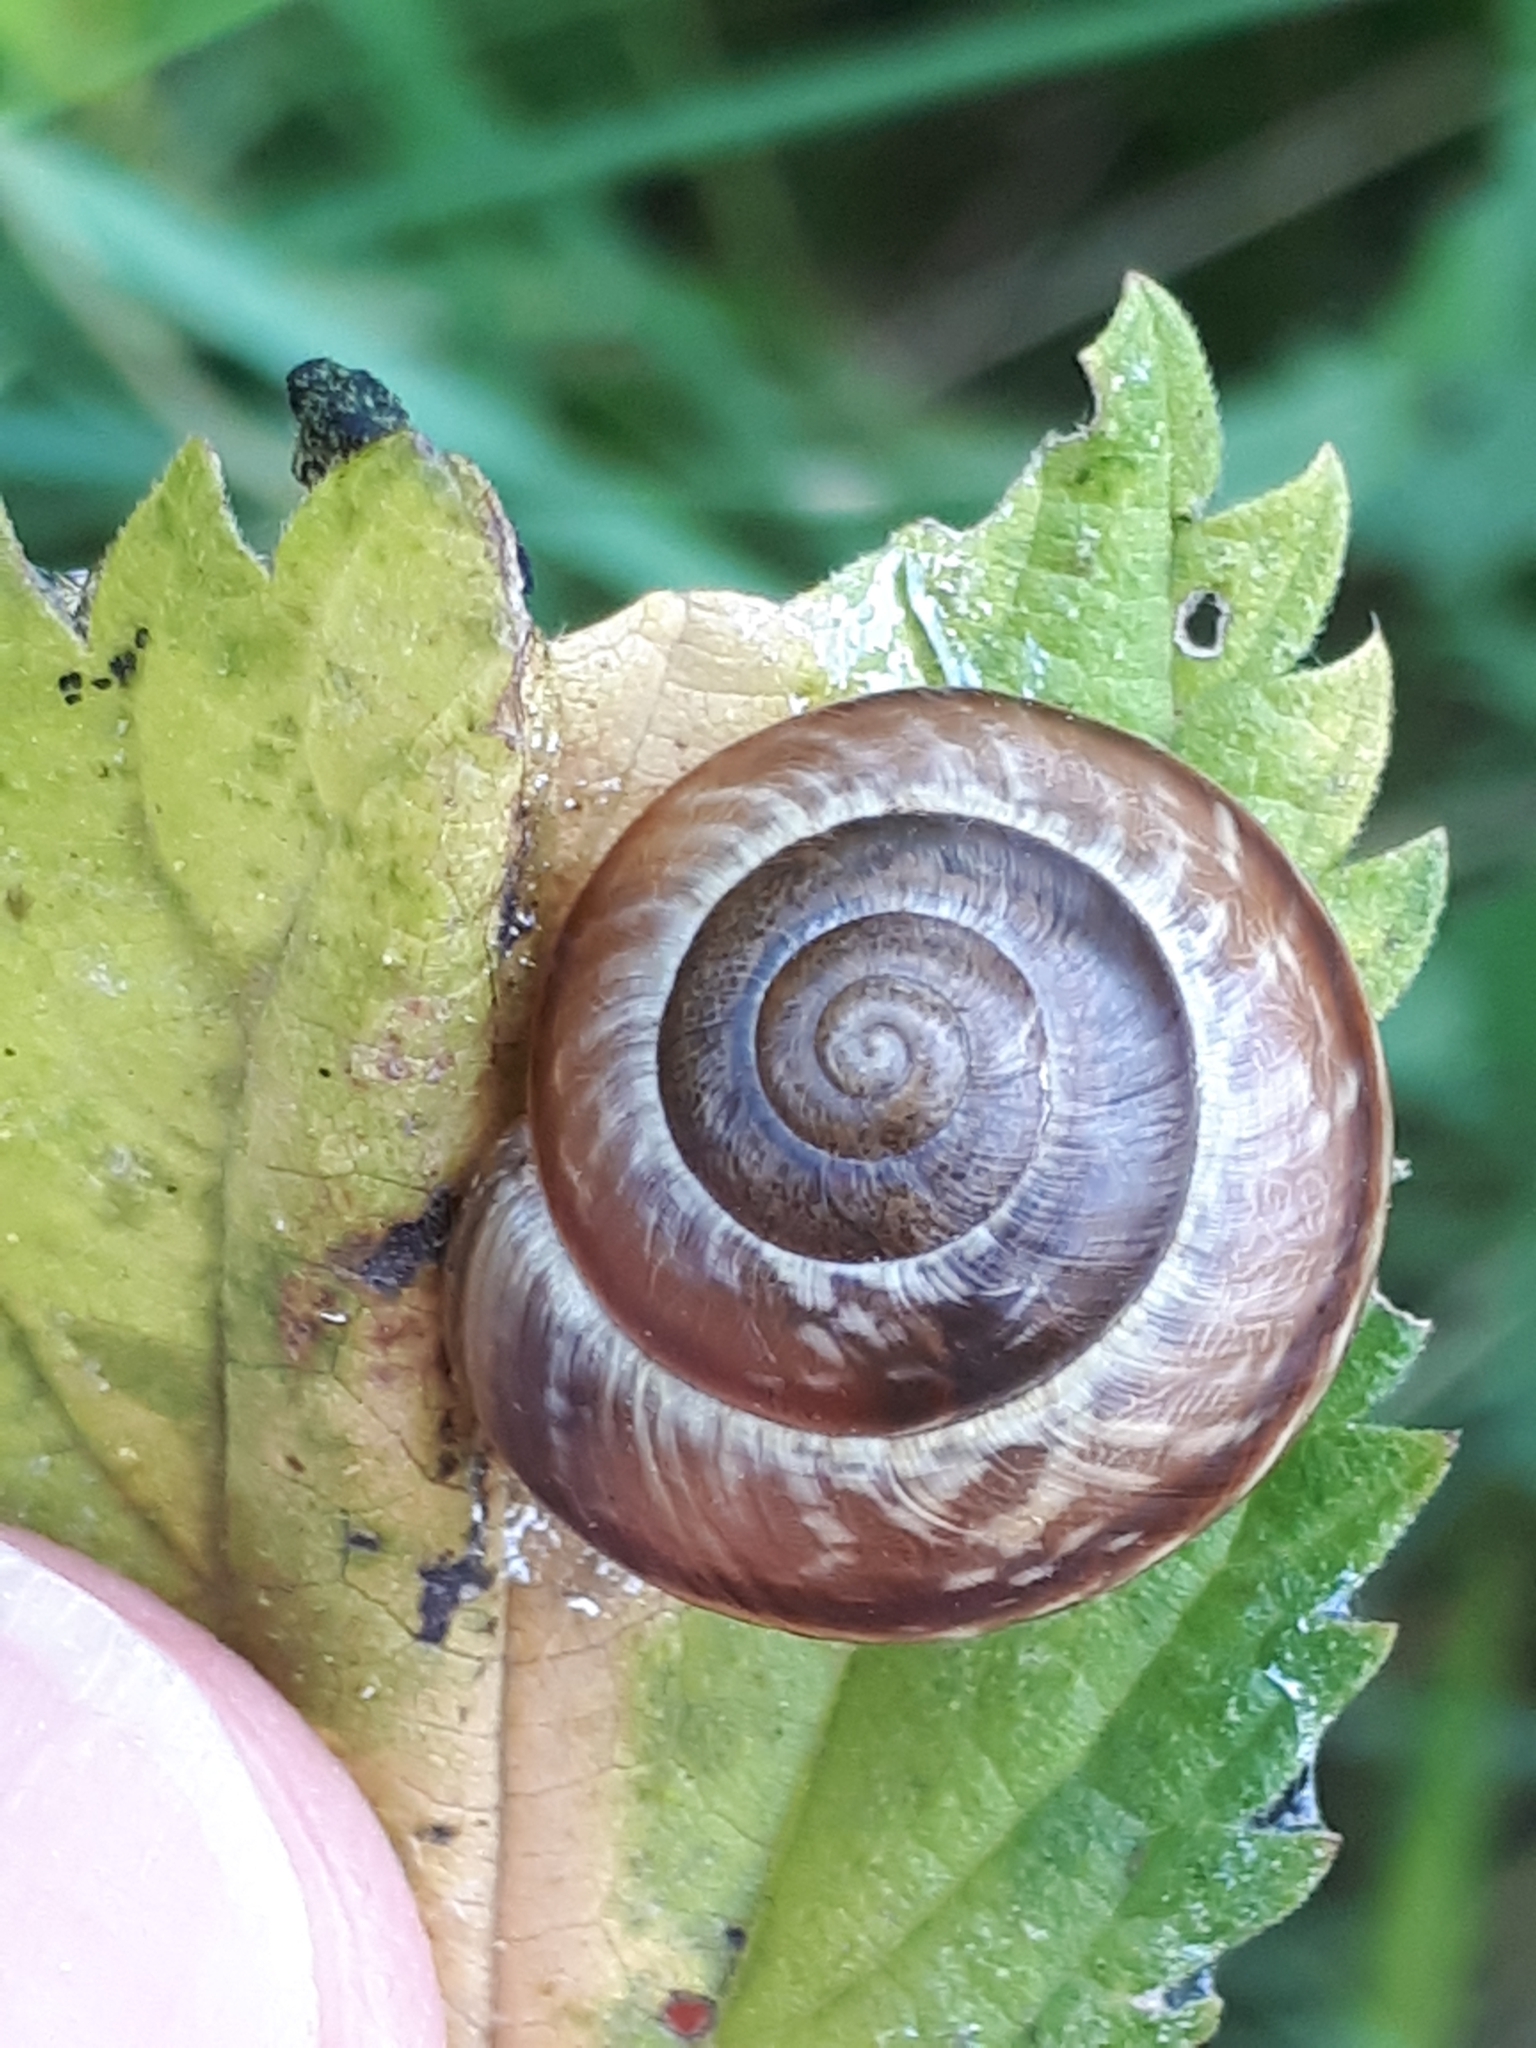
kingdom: Animalia
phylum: Mollusca
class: Gastropoda
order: Stylommatophora
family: Helicidae
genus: Arianta
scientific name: Arianta arbustorum
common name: Copse snail
